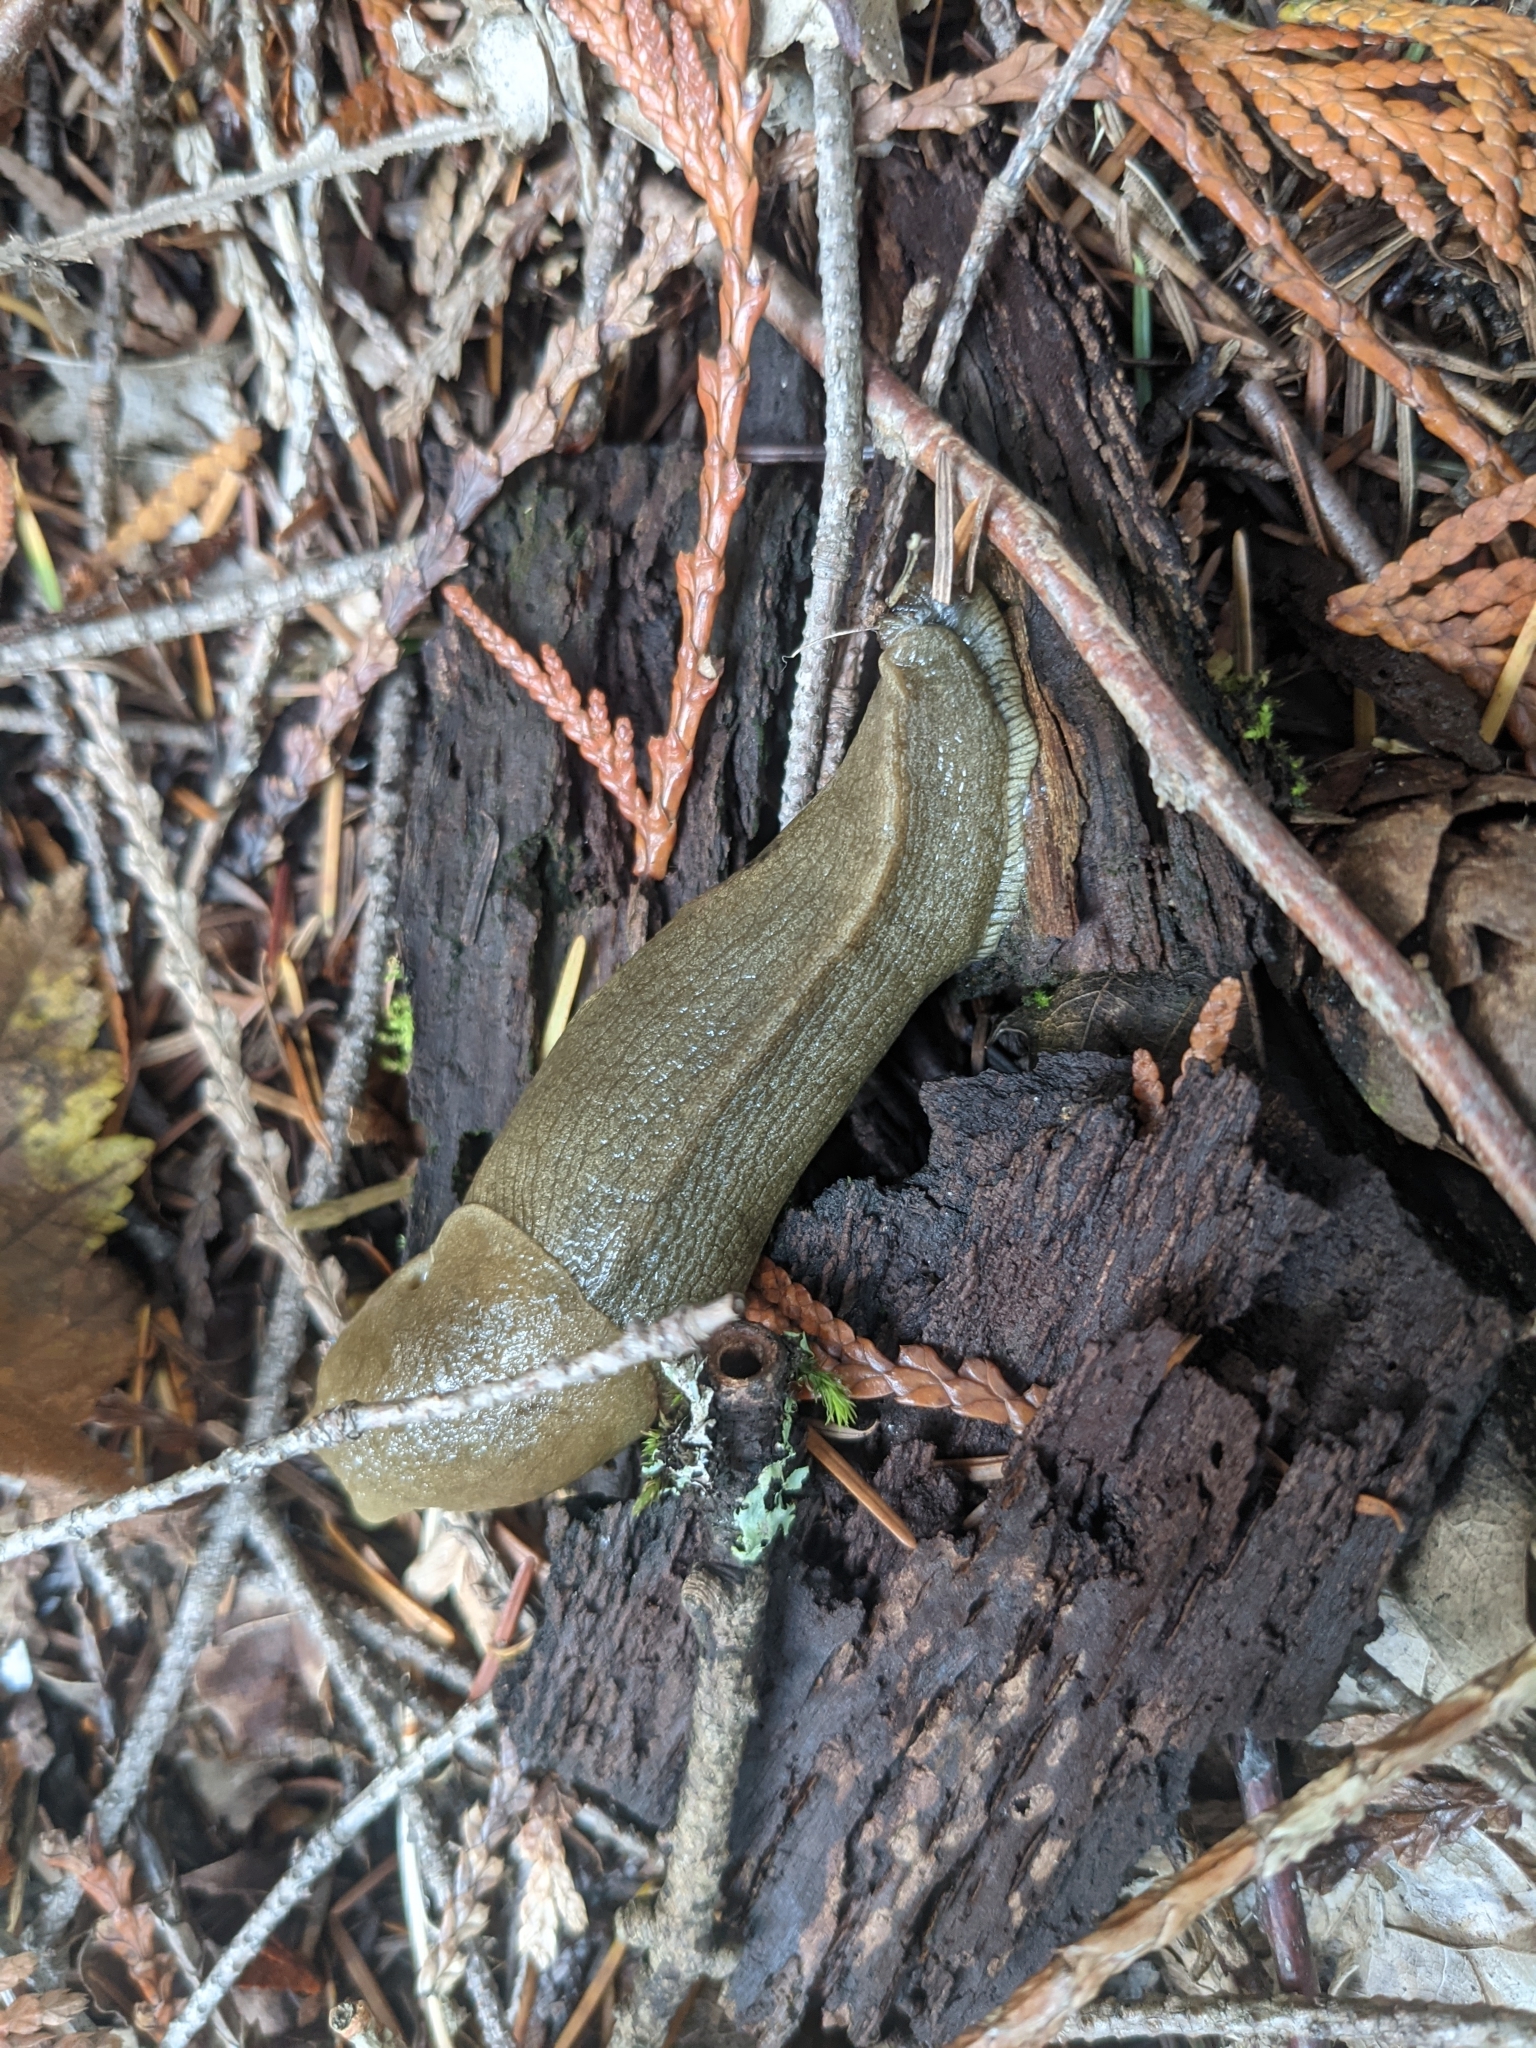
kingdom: Animalia
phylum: Mollusca
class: Gastropoda
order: Stylommatophora
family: Ariolimacidae
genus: Ariolimax
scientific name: Ariolimax columbianus
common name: Pacific banana slug
